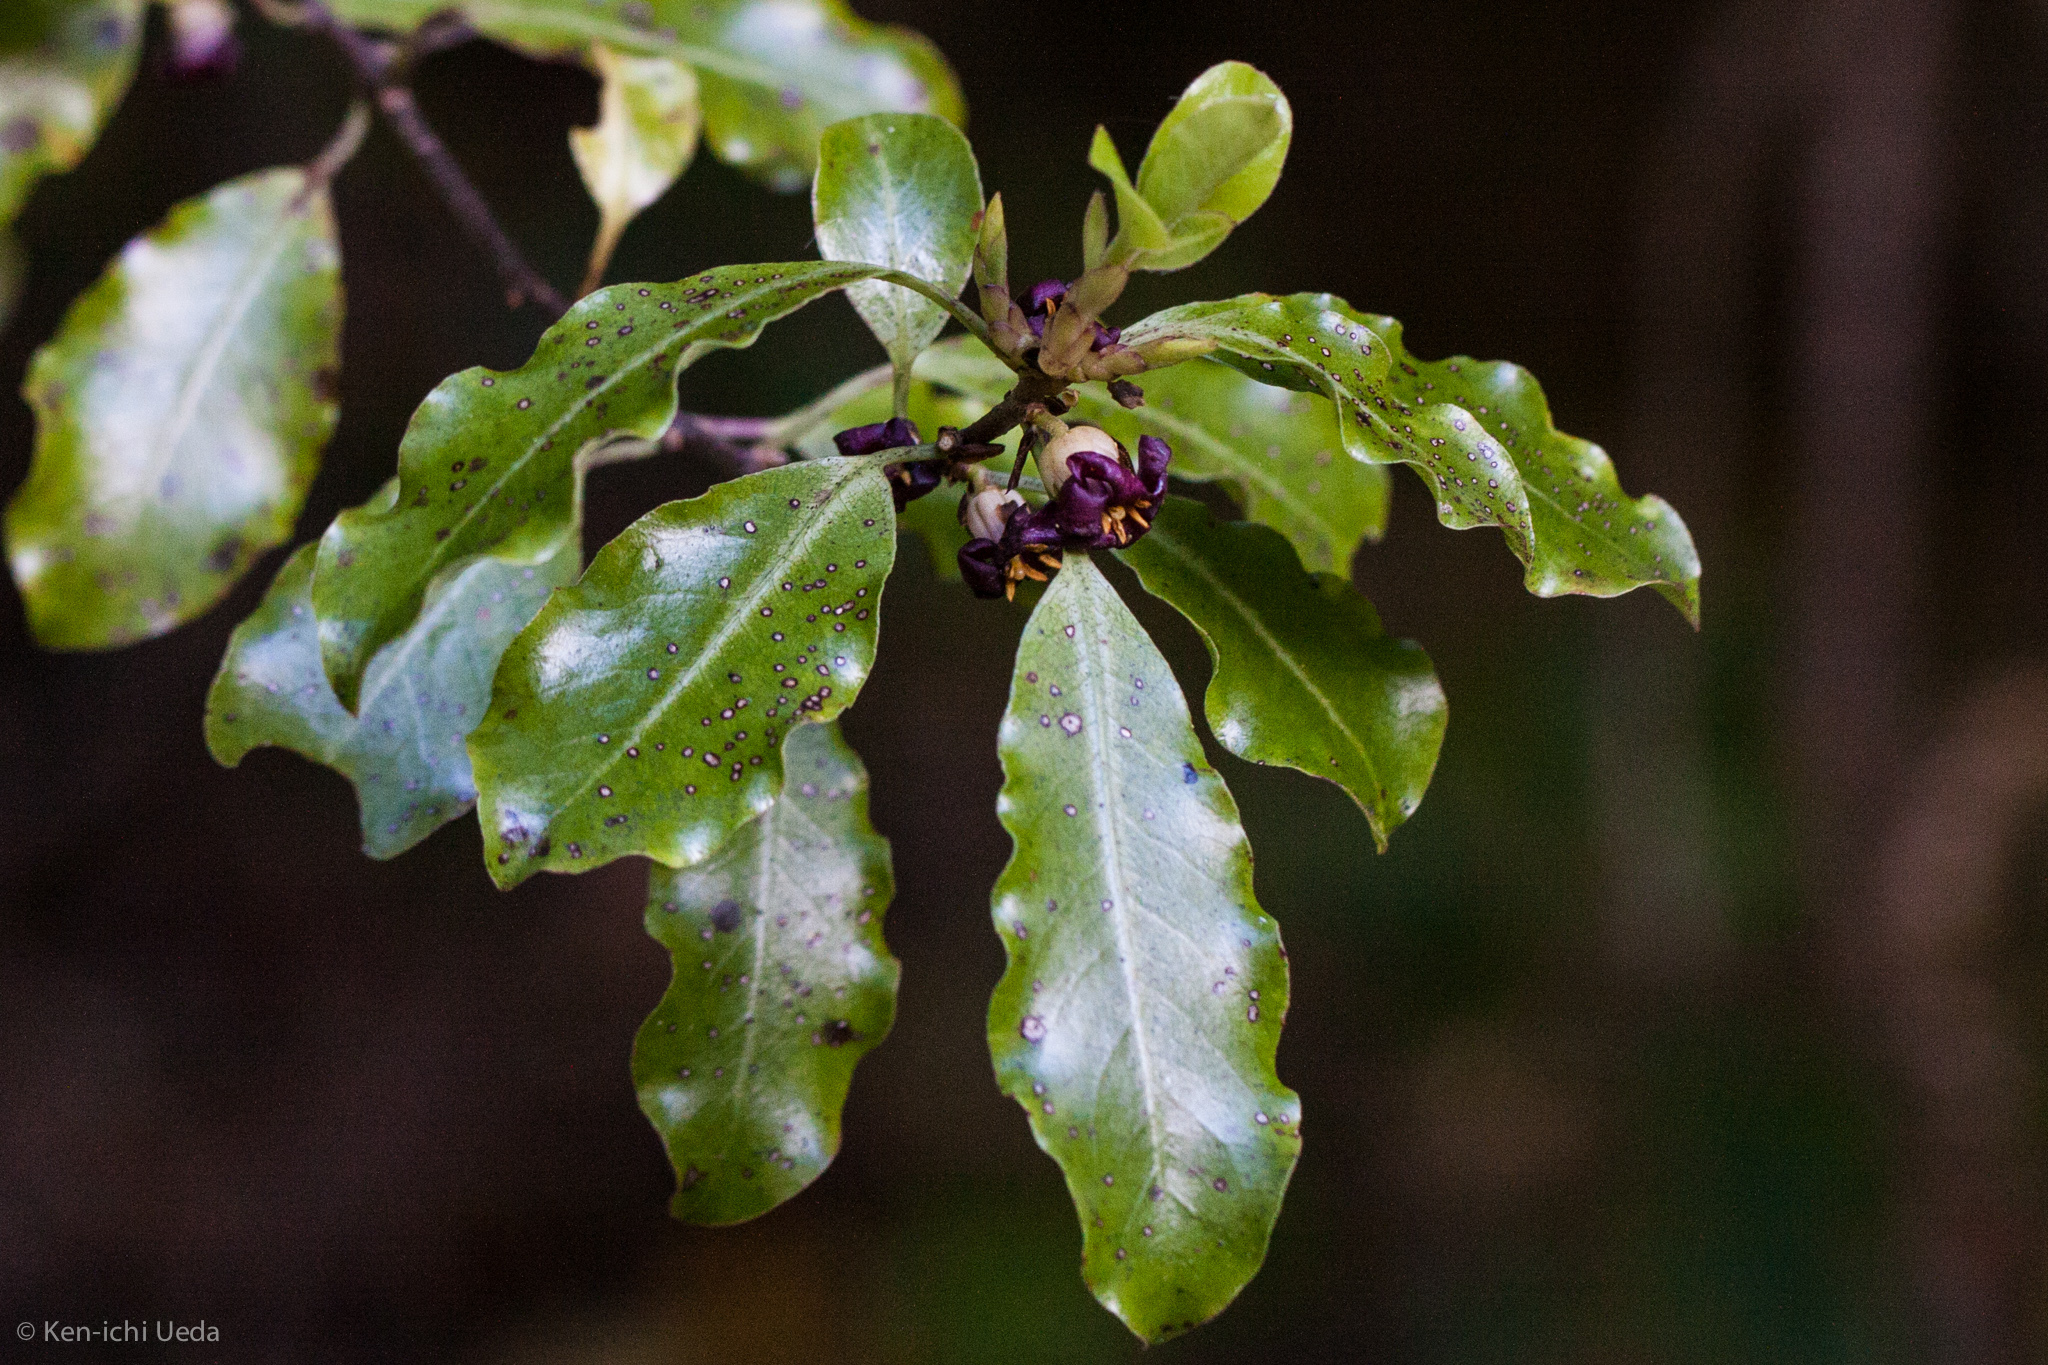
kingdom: Plantae
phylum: Tracheophyta
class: Magnoliopsida
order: Apiales
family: Pittosporaceae
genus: Pittosporum
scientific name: Pittosporum tenuifolium
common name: Kohuhu
